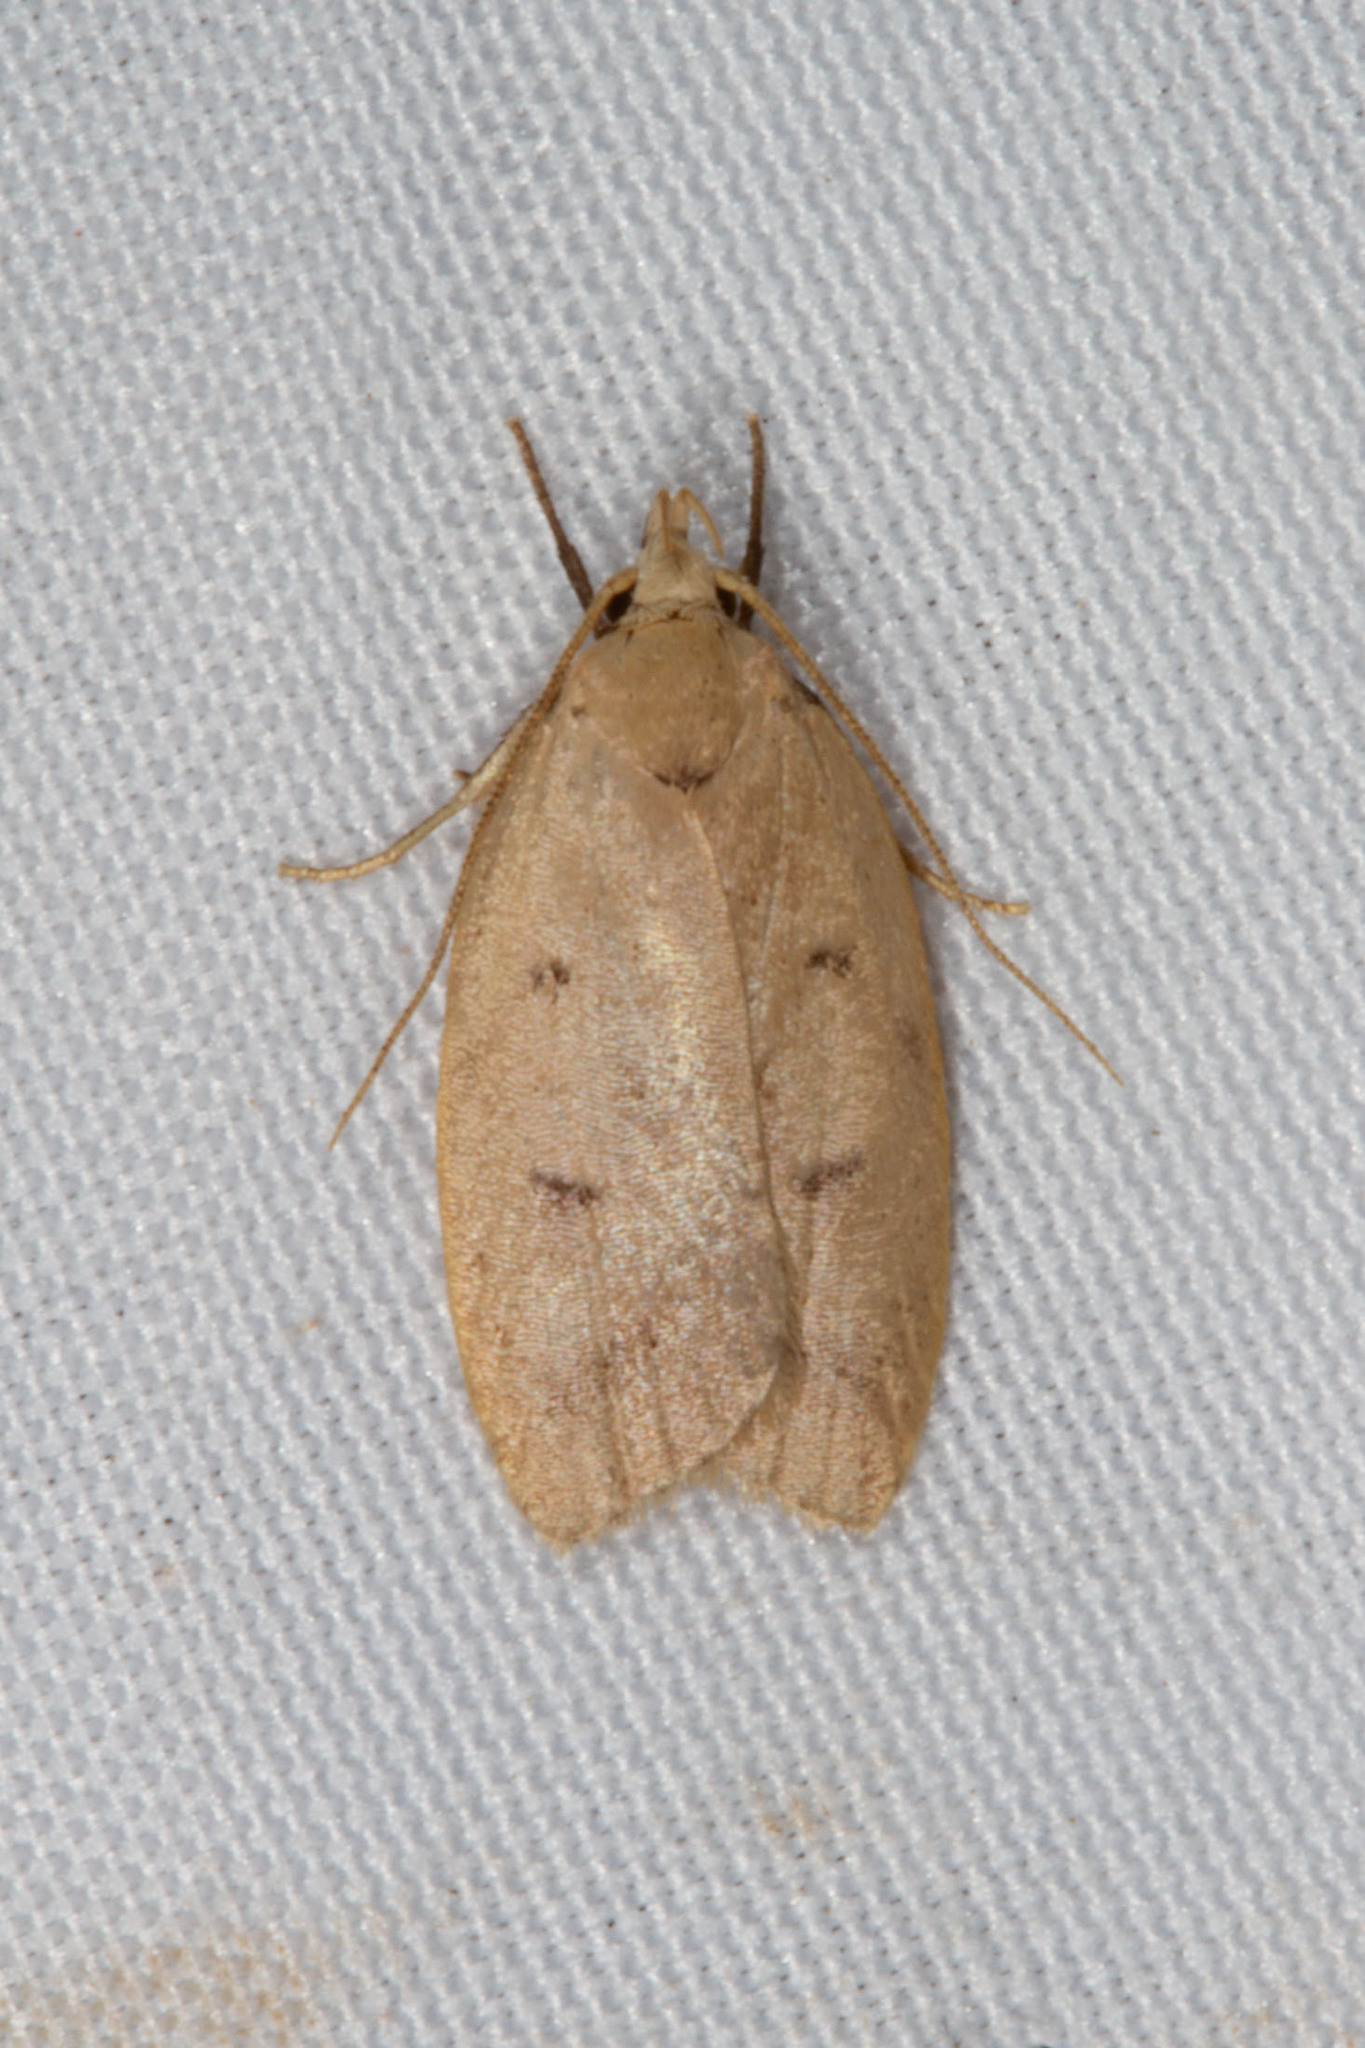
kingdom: Animalia
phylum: Arthropoda
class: Insecta
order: Lepidoptera
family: Peleopodidae
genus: Machimia
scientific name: Machimia tentoriferella
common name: Gold-striped leaftier moth
